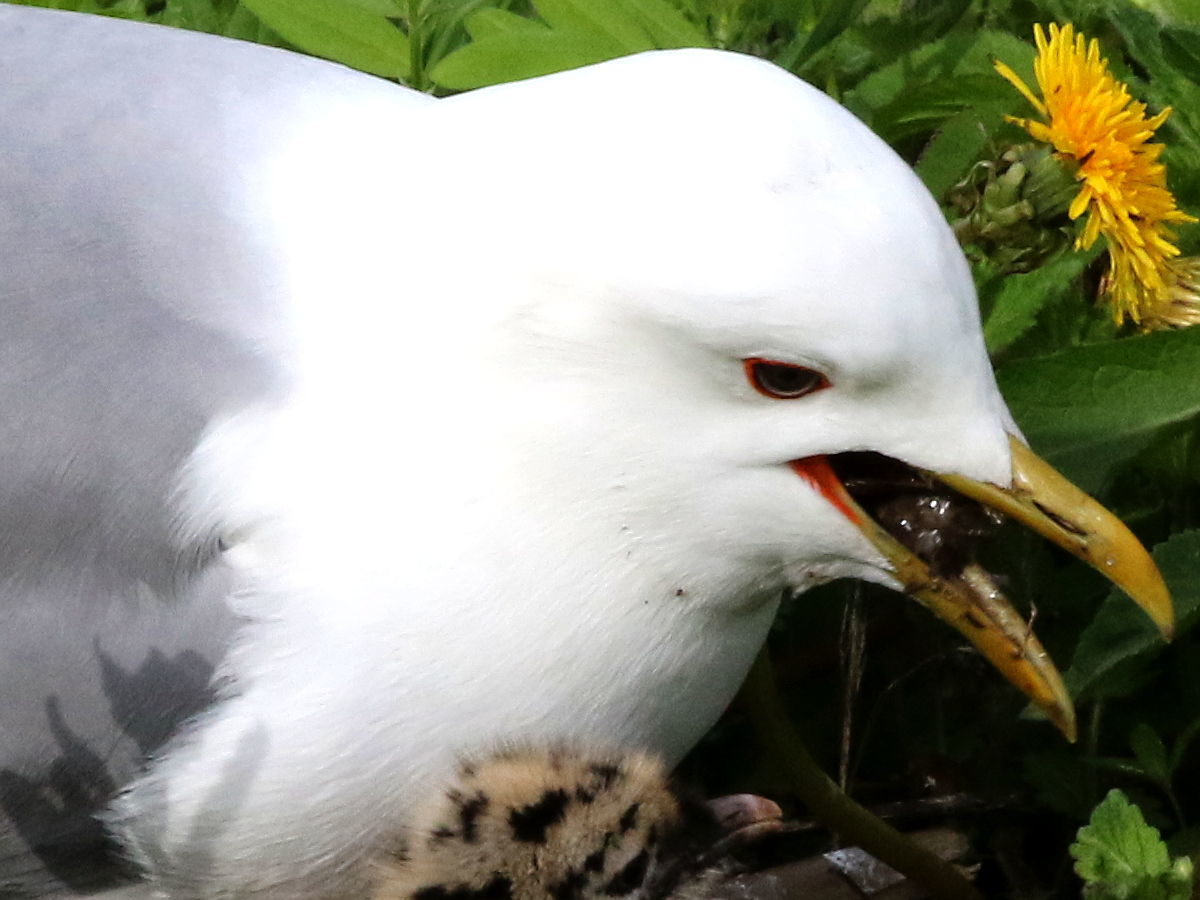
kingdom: Animalia
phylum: Chordata
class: Aves
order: Charadriiformes
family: Laridae
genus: Larus
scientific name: Larus canus
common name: Mew gull
